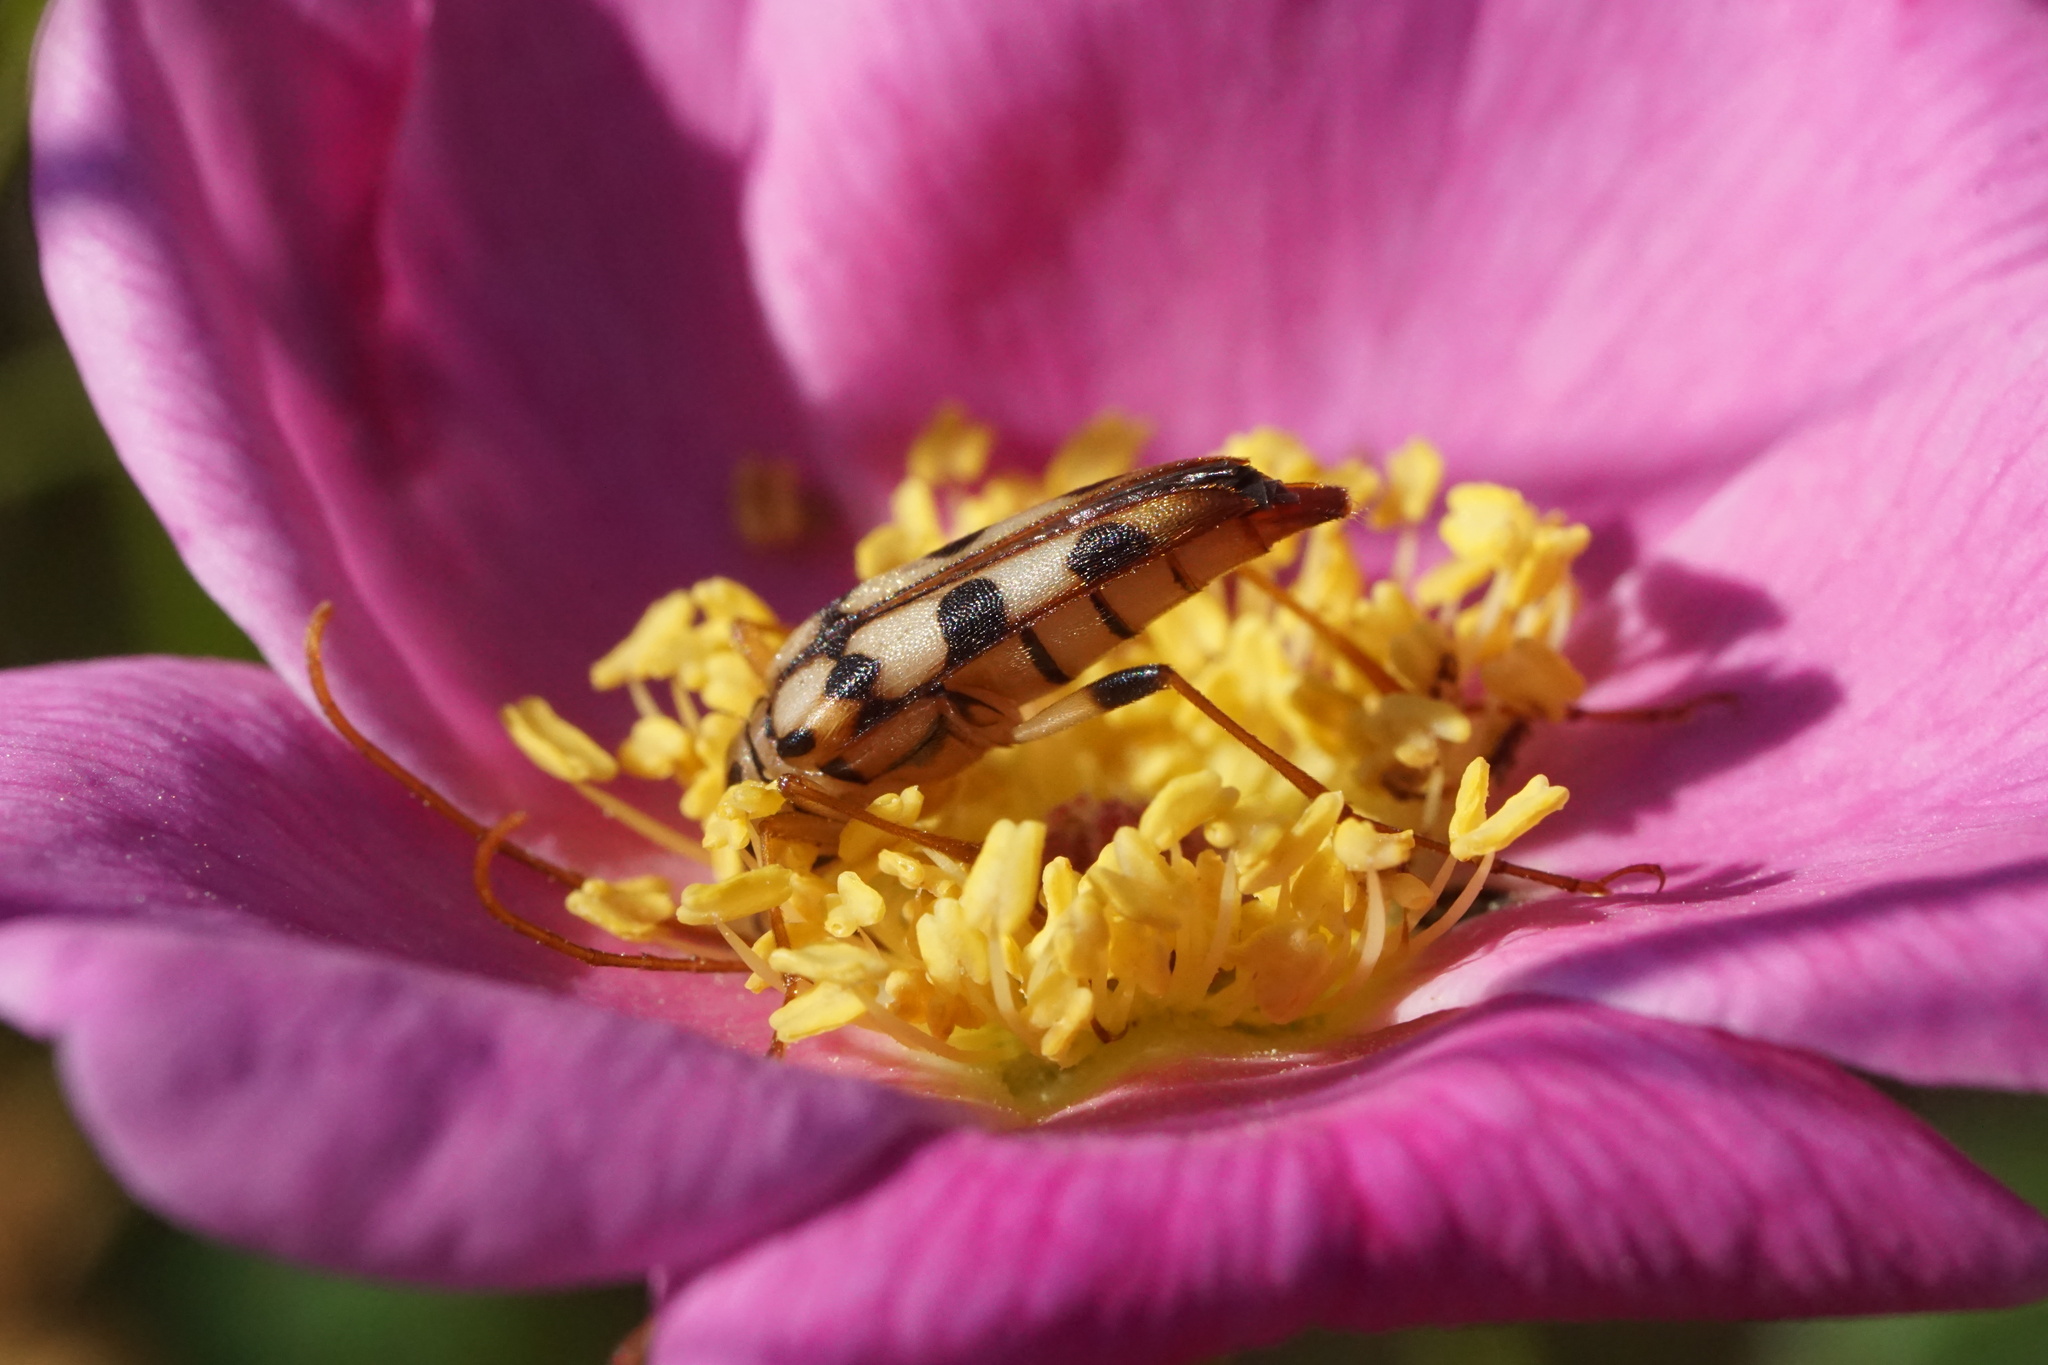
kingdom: Animalia
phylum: Arthropoda
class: Insecta
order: Coleoptera
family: Cerambycidae
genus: Strangalia
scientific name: Strangalia luteicornis
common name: Yellow-horned flower longhorn beetle
